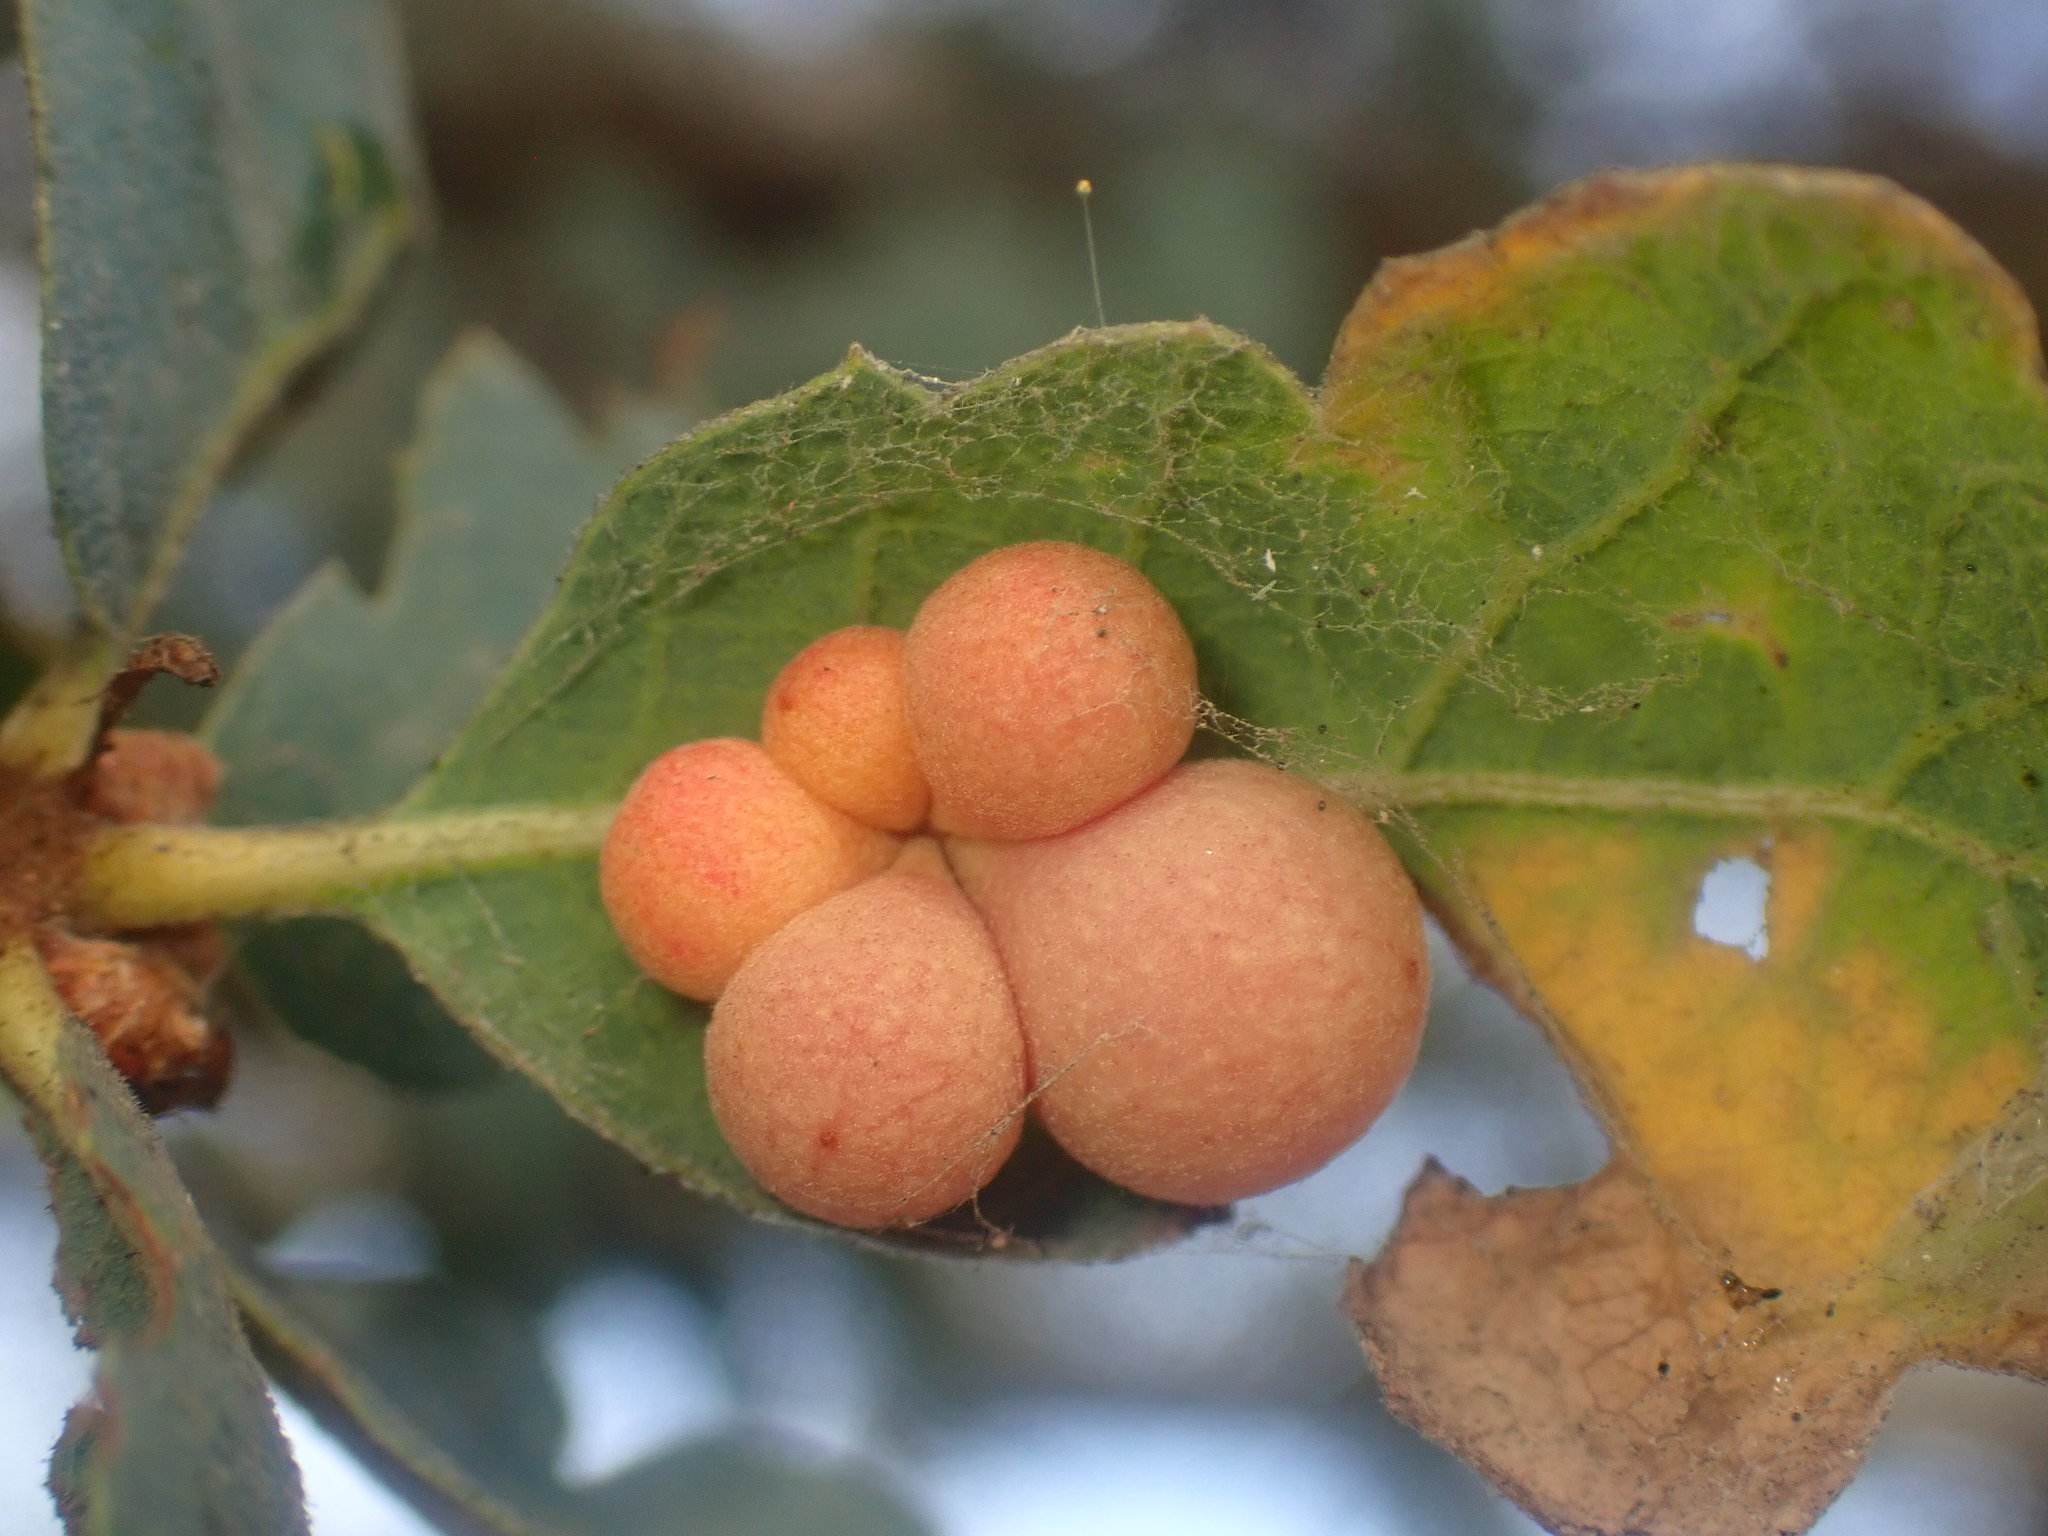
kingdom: Animalia
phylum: Arthropoda
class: Insecta
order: Hymenoptera
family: Cynipidae
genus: Andricus
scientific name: Andricus
